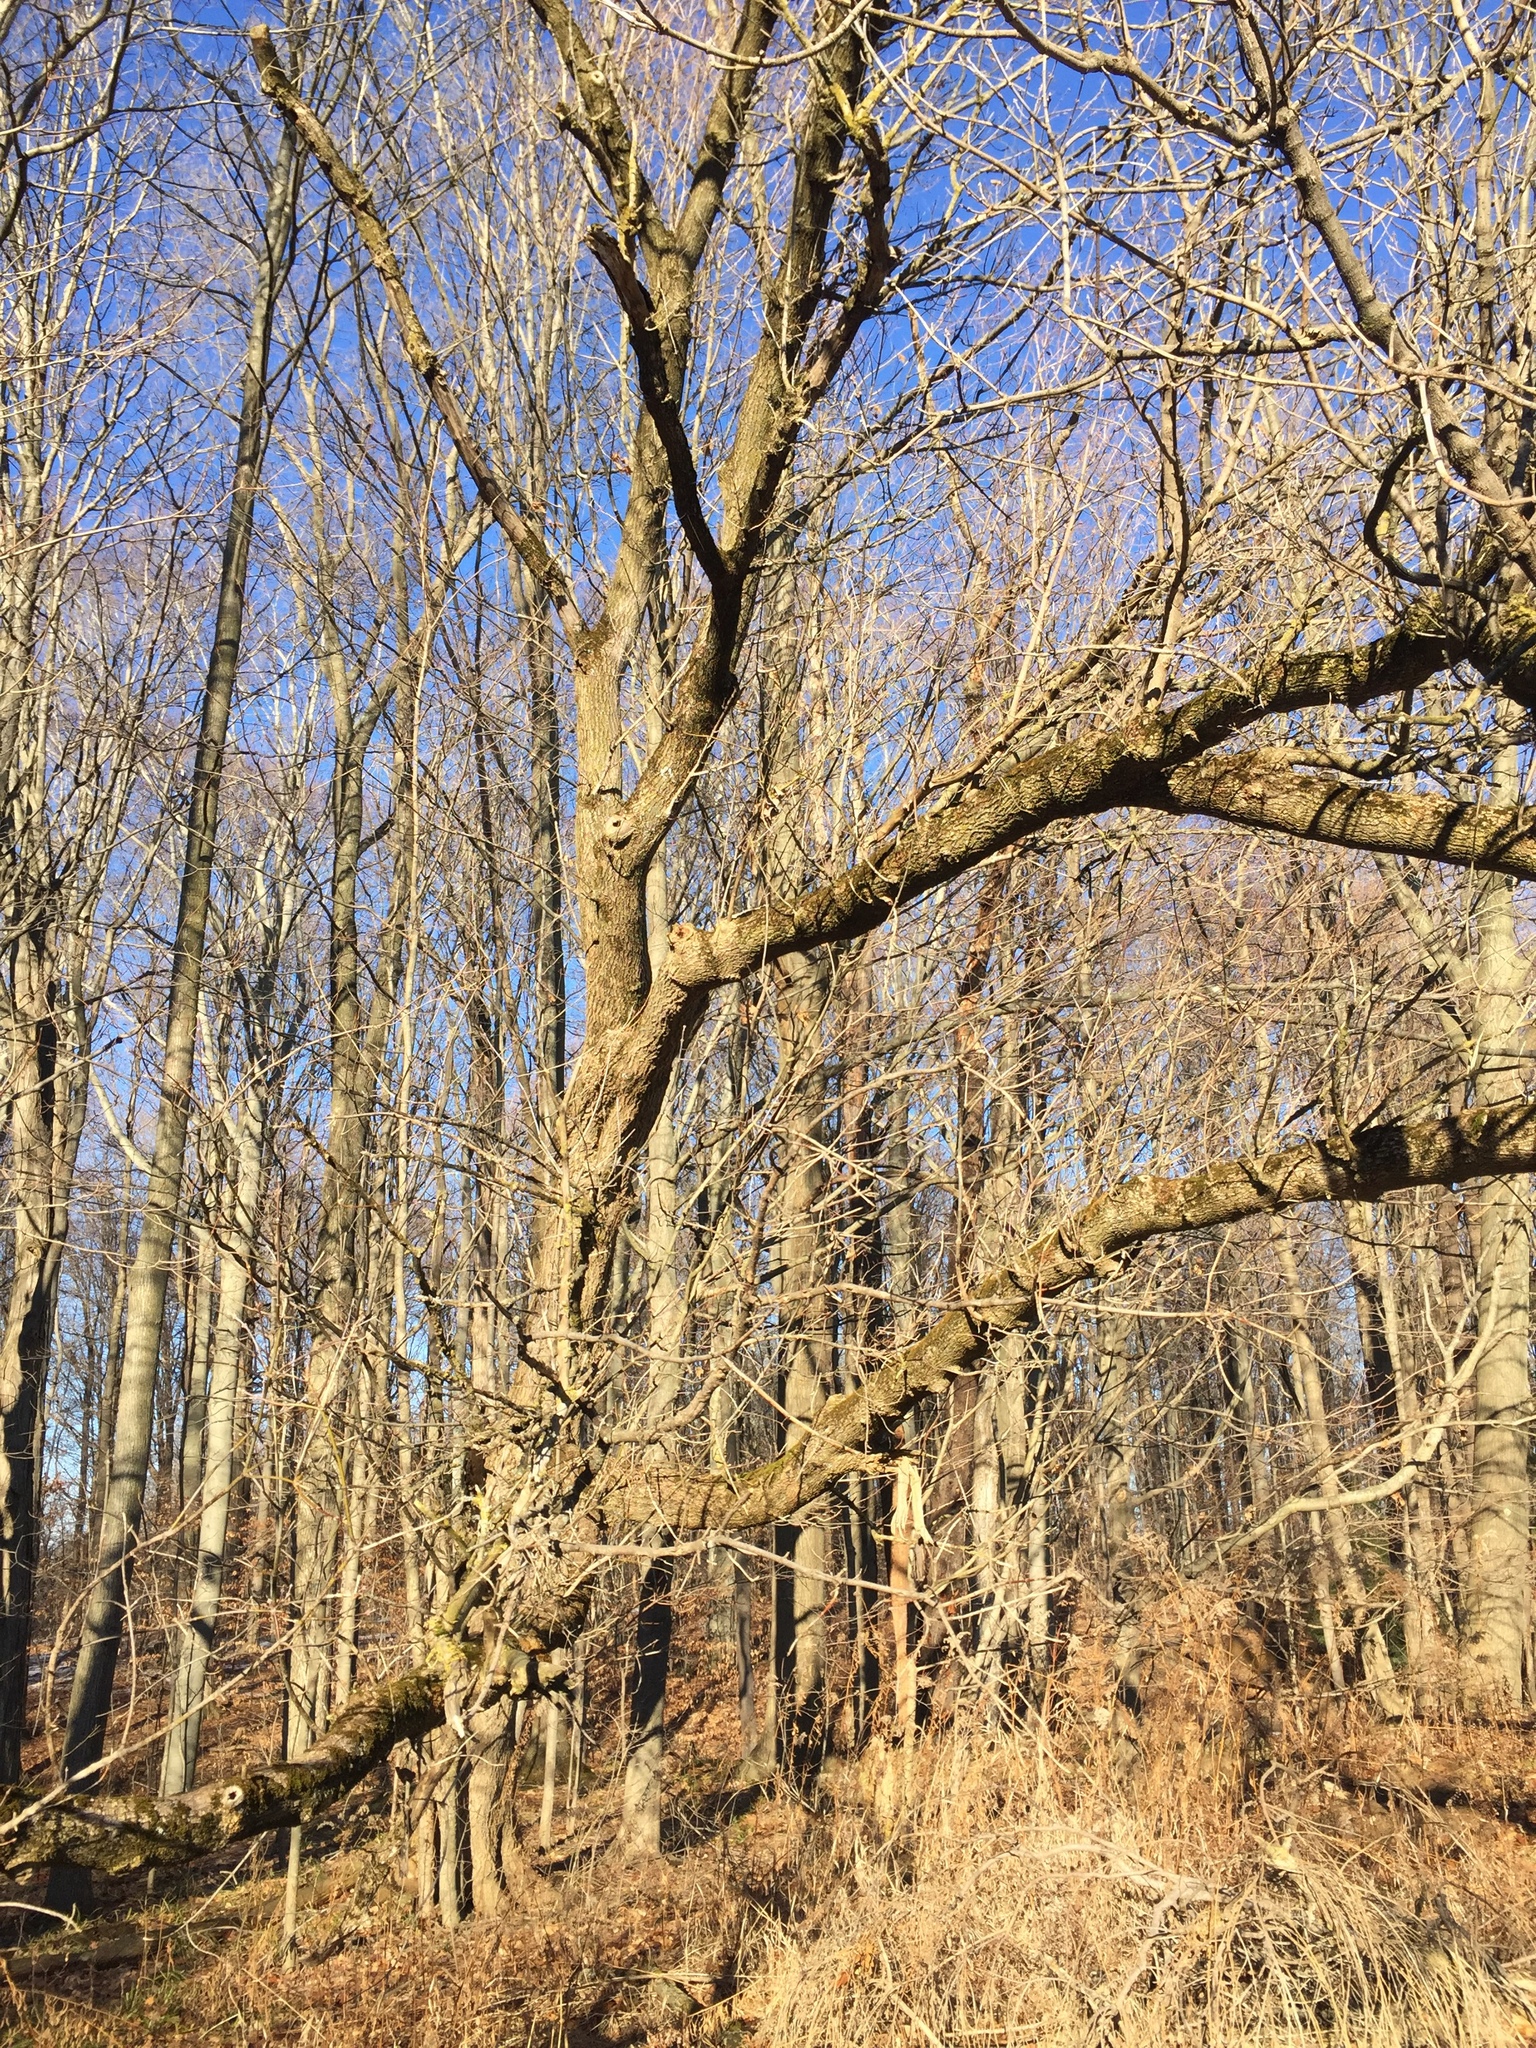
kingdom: Plantae
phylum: Tracheophyta
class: Magnoliopsida
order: Sapindales
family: Sapindaceae
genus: Acer
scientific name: Acer negundo
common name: Ashleaf maple
